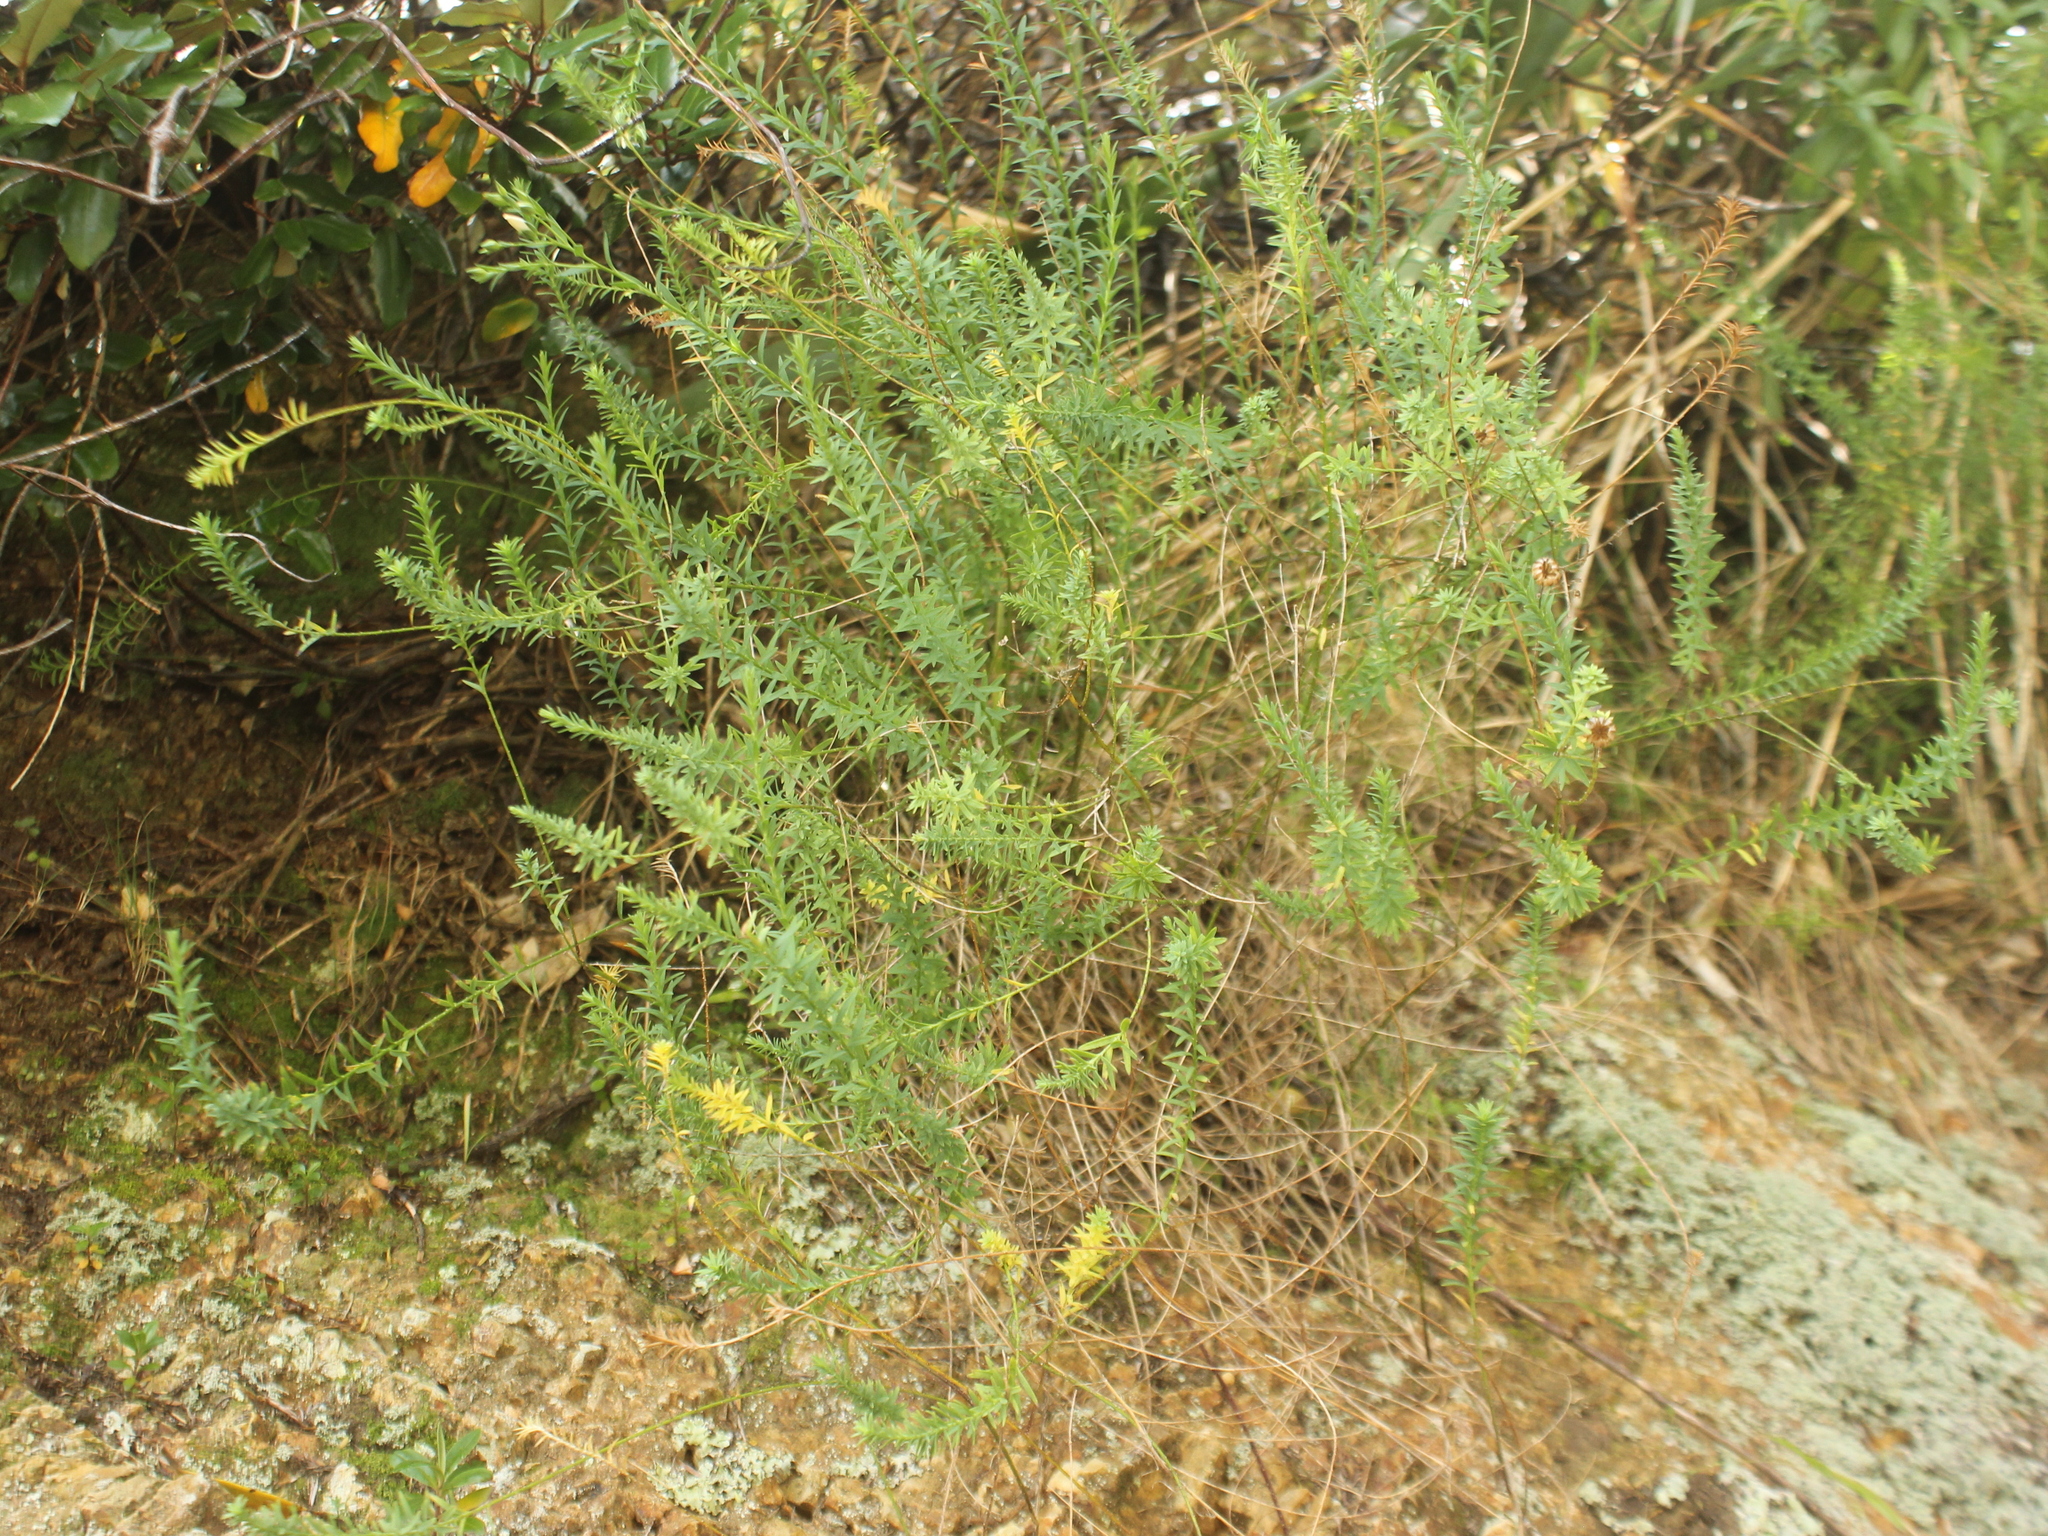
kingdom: Plantae
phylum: Tracheophyta
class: Magnoliopsida
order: Malpighiales
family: Linaceae
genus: Linum
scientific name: Linum monogynum
